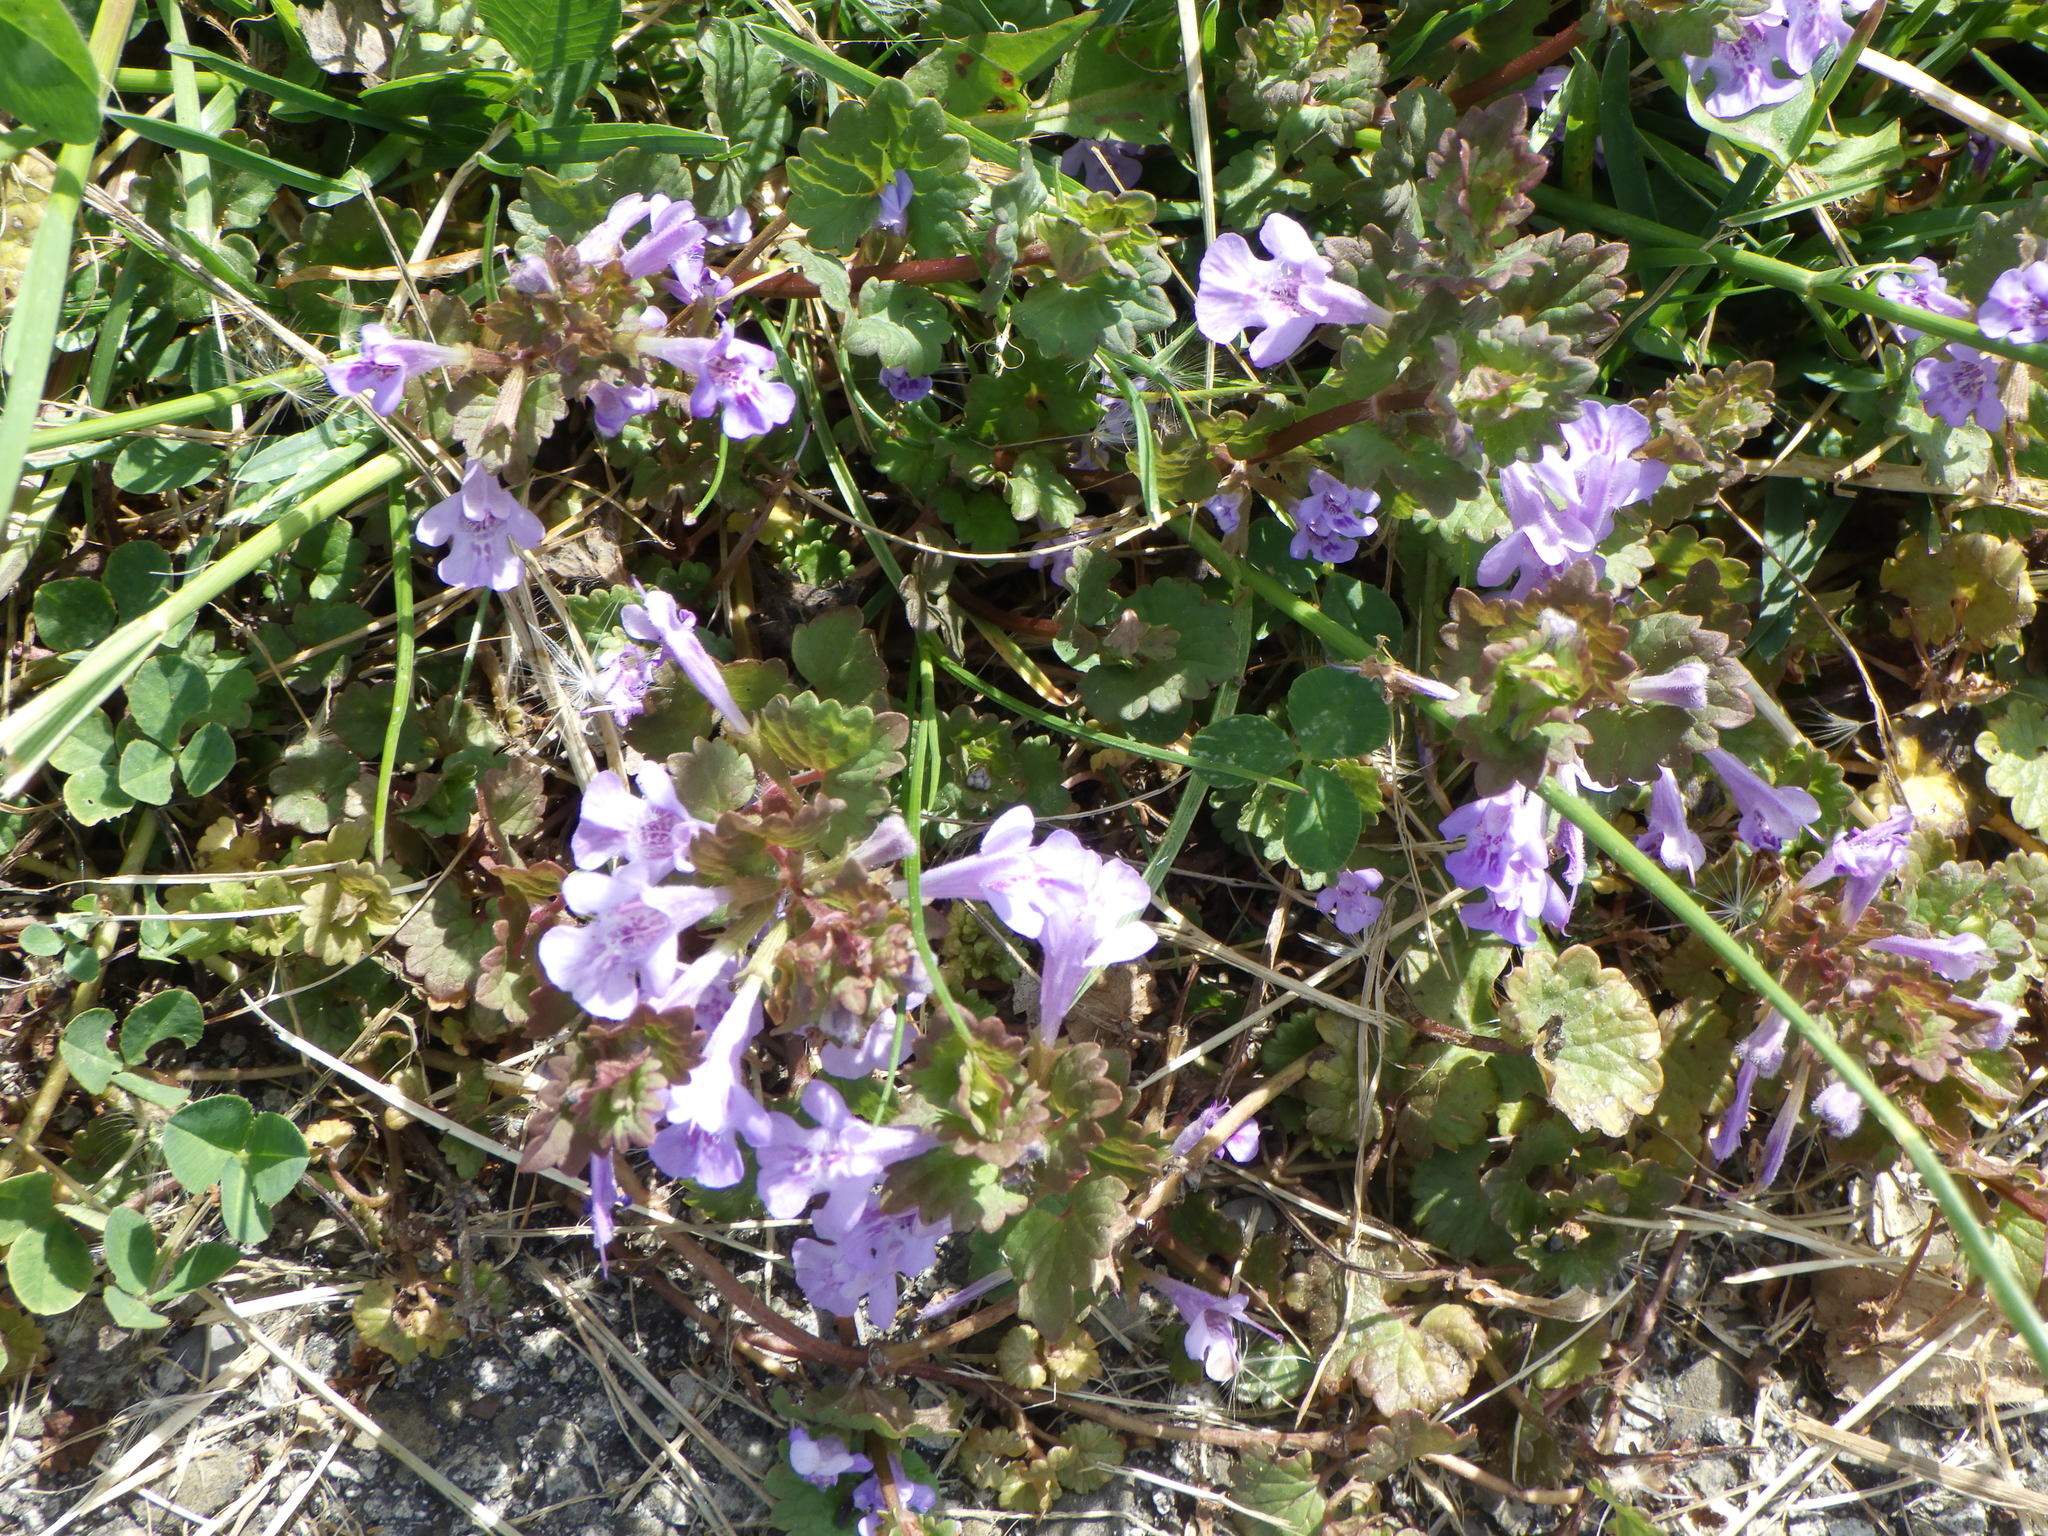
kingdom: Plantae
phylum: Tracheophyta
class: Magnoliopsida
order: Lamiales
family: Lamiaceae
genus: Glechoma
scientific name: Glechoma hederacea
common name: Ground ivy
